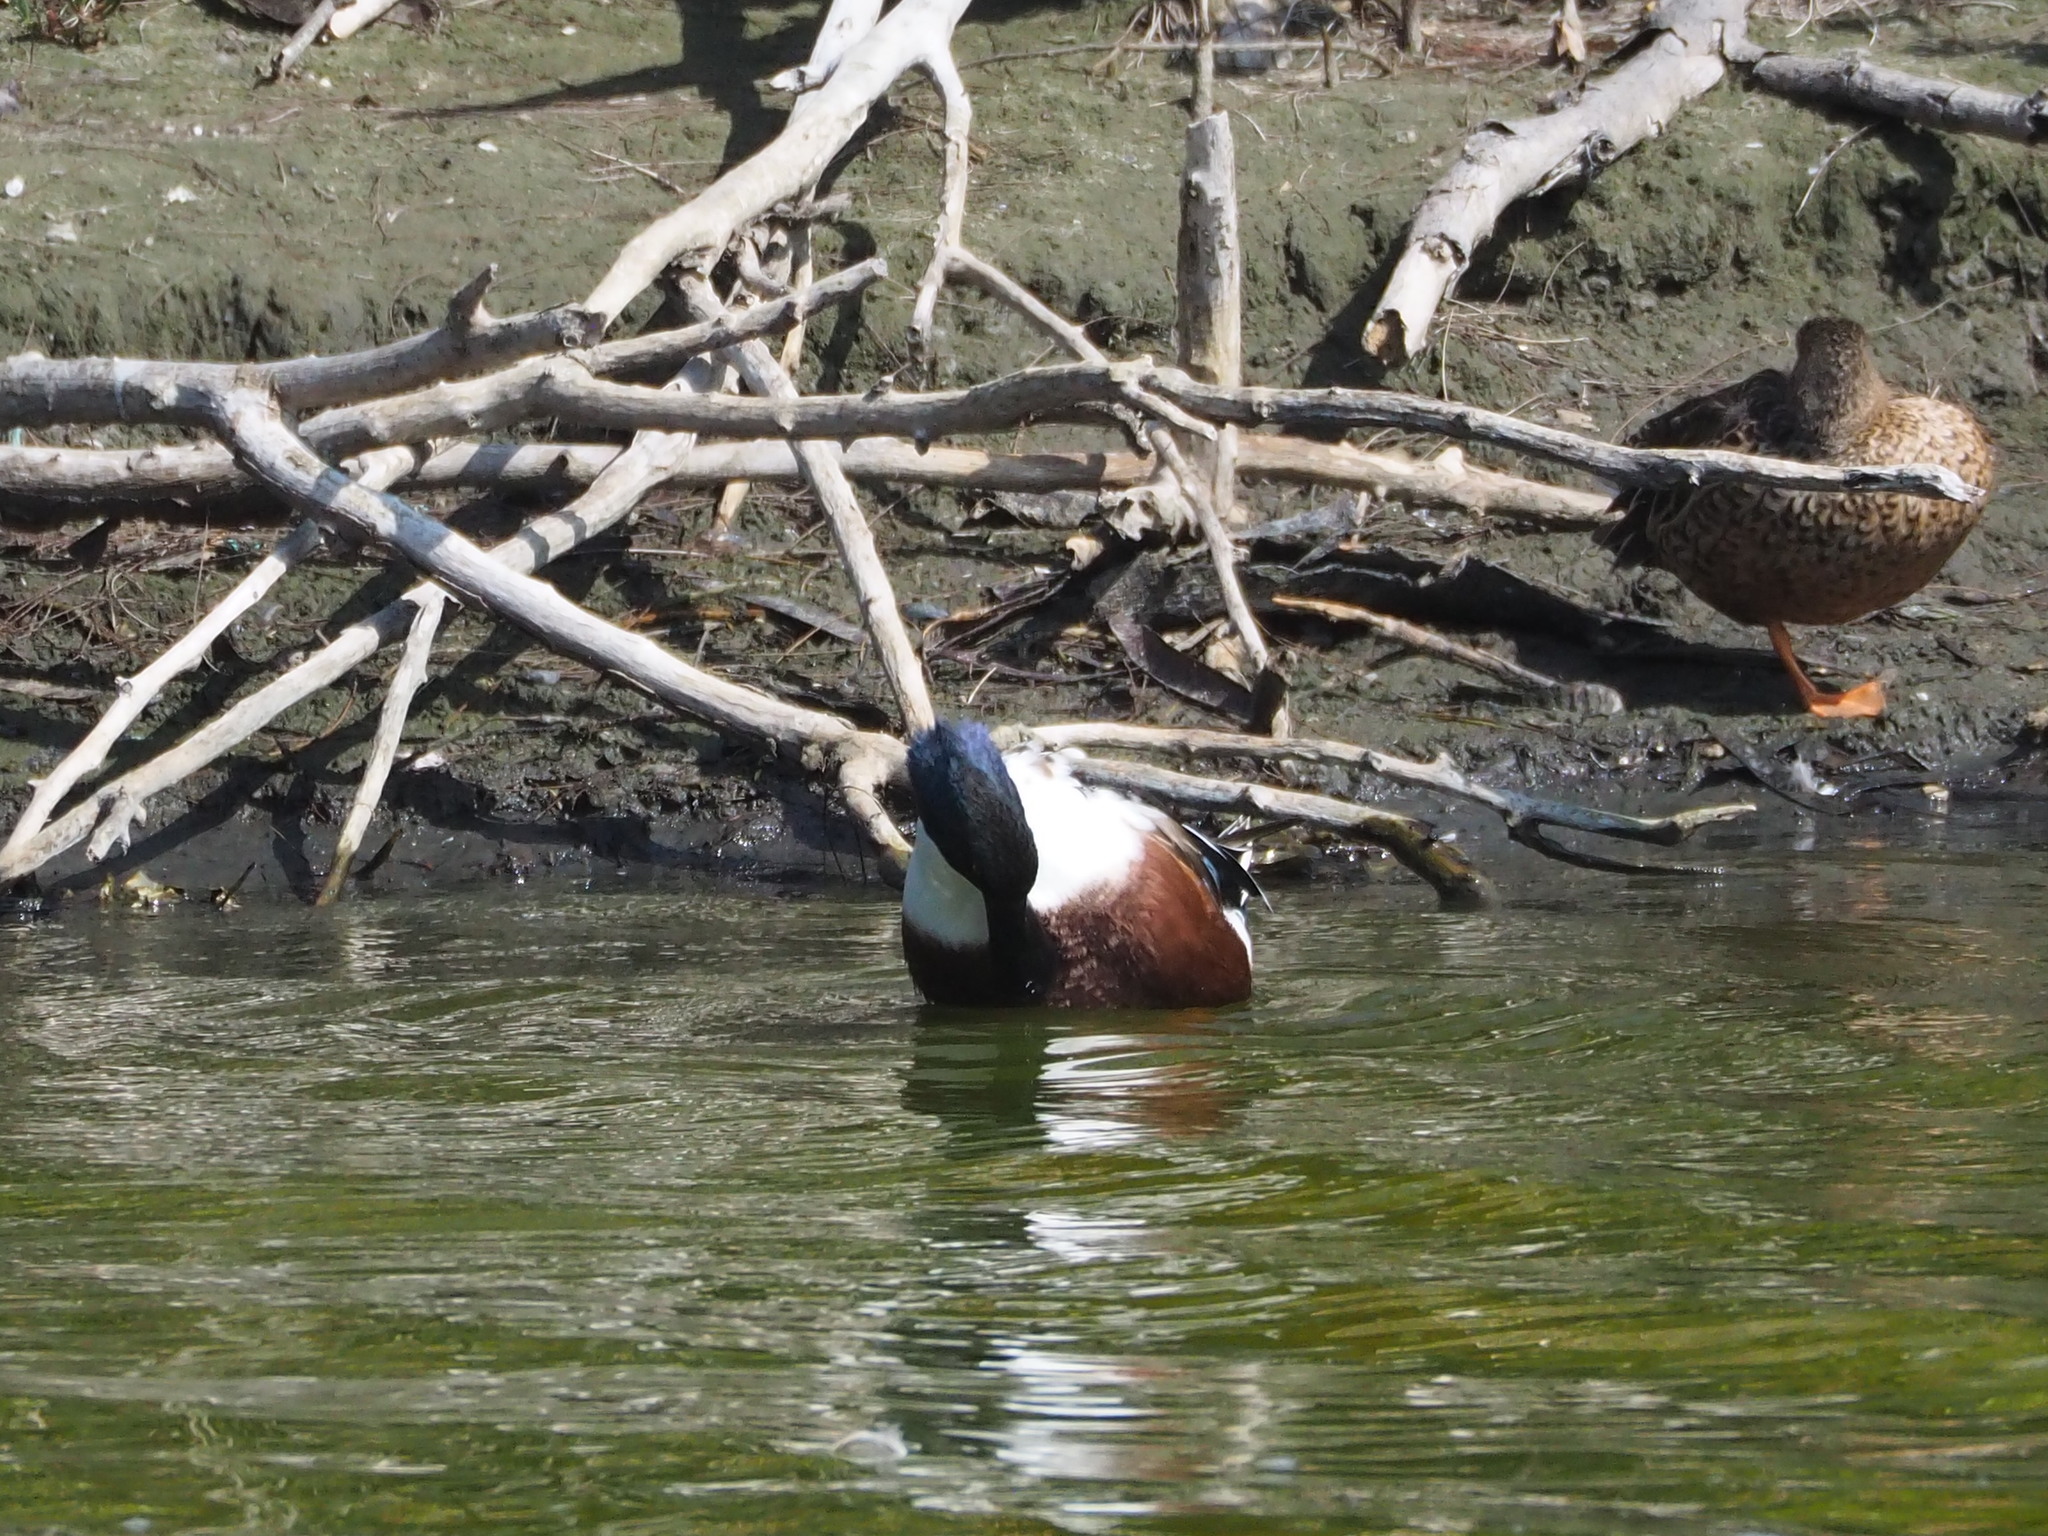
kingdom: Animalia
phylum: Chordata
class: Aves
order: Anseriformes
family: Anatidae
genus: Spatula
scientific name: Spatula clypeata
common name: Northern shoveler
